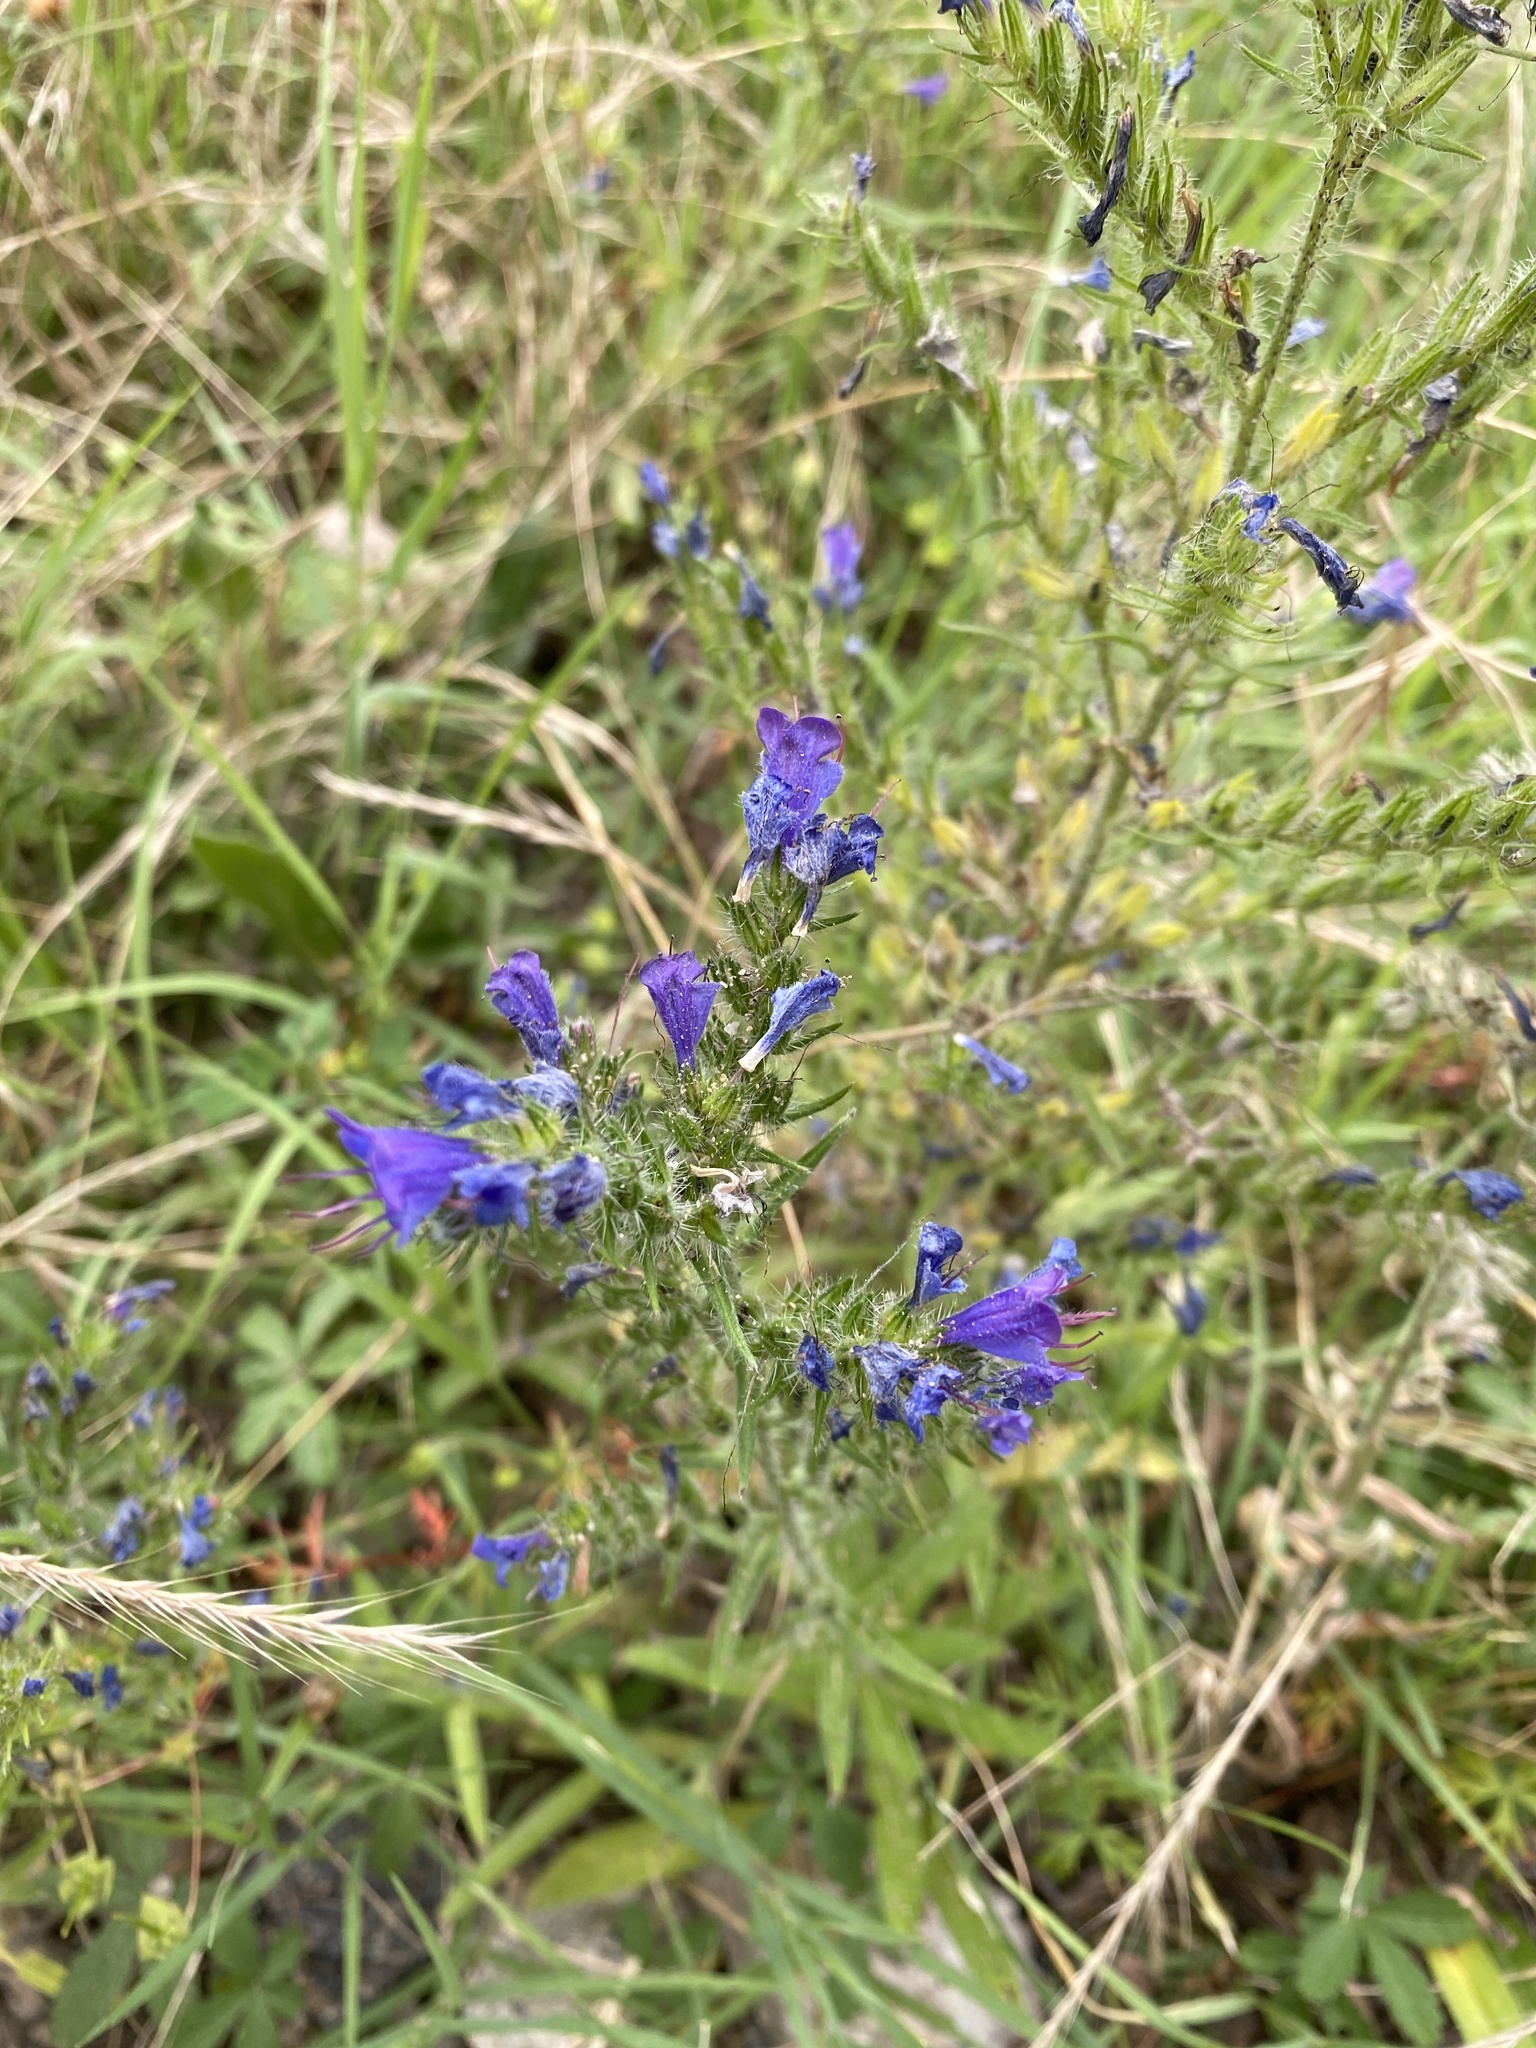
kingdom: Plantae
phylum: Tracheophyta
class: Magnoliopsida
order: Boraginales
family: Boraginaceae
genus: Echium
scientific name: Echium vulgare
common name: Common viper's bugloss
